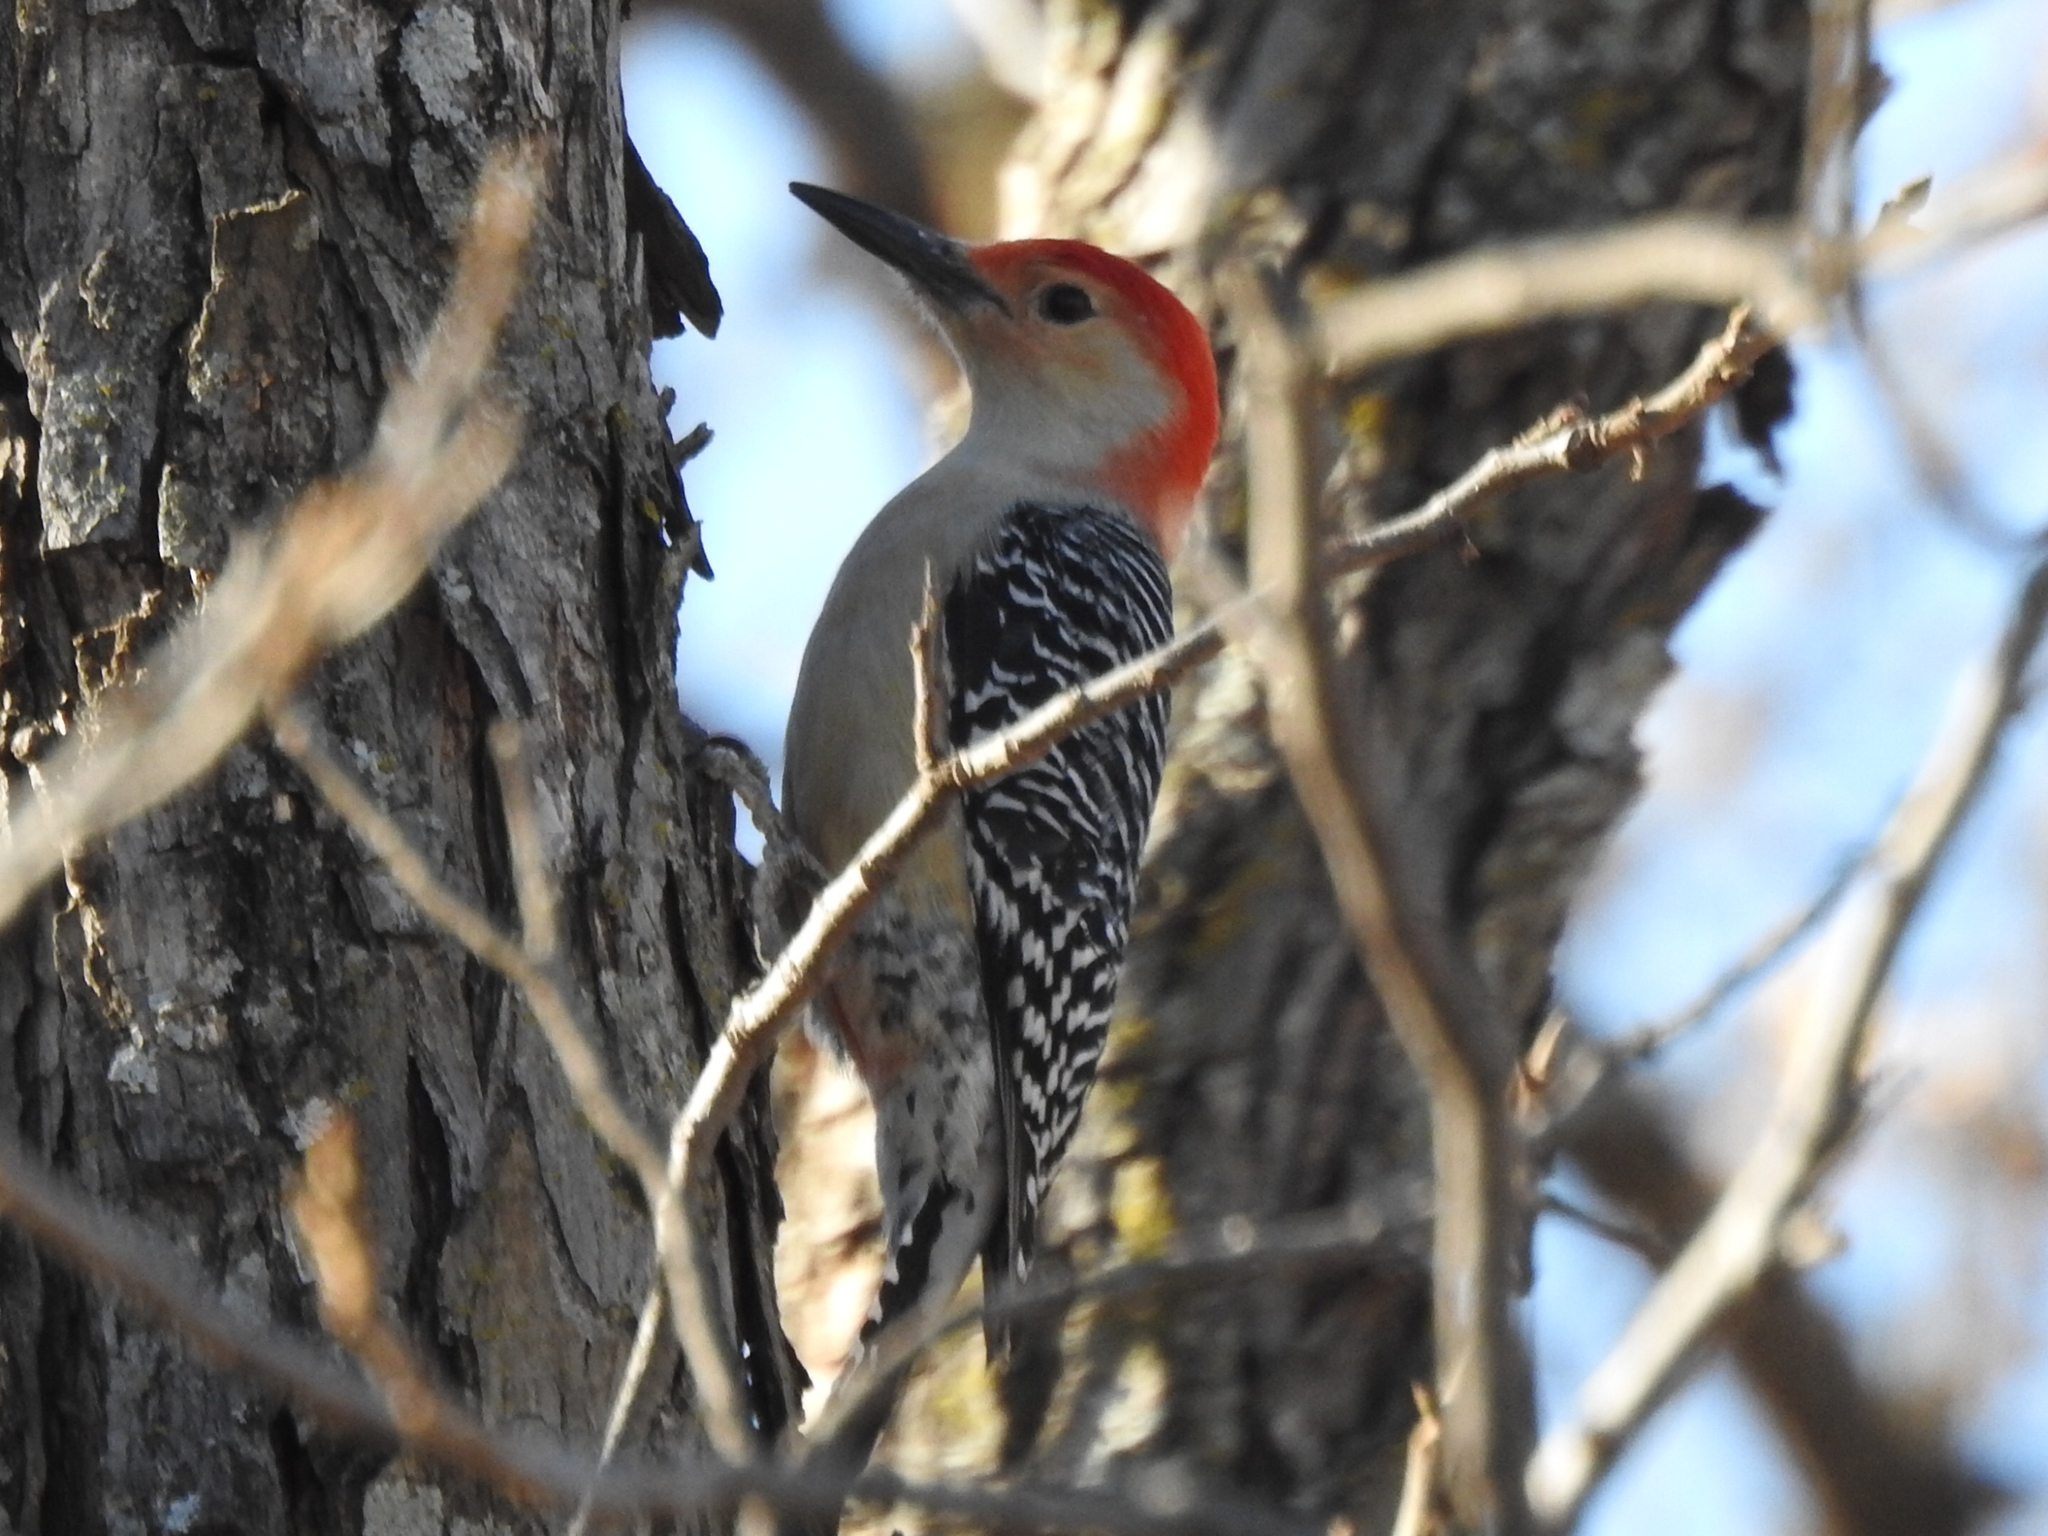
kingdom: Animalia
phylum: Chordata
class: Aves
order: Piciformes
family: Picidae
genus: Melanerpes
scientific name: Melanerpes carolinus
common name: Red-bellied woodpecker
